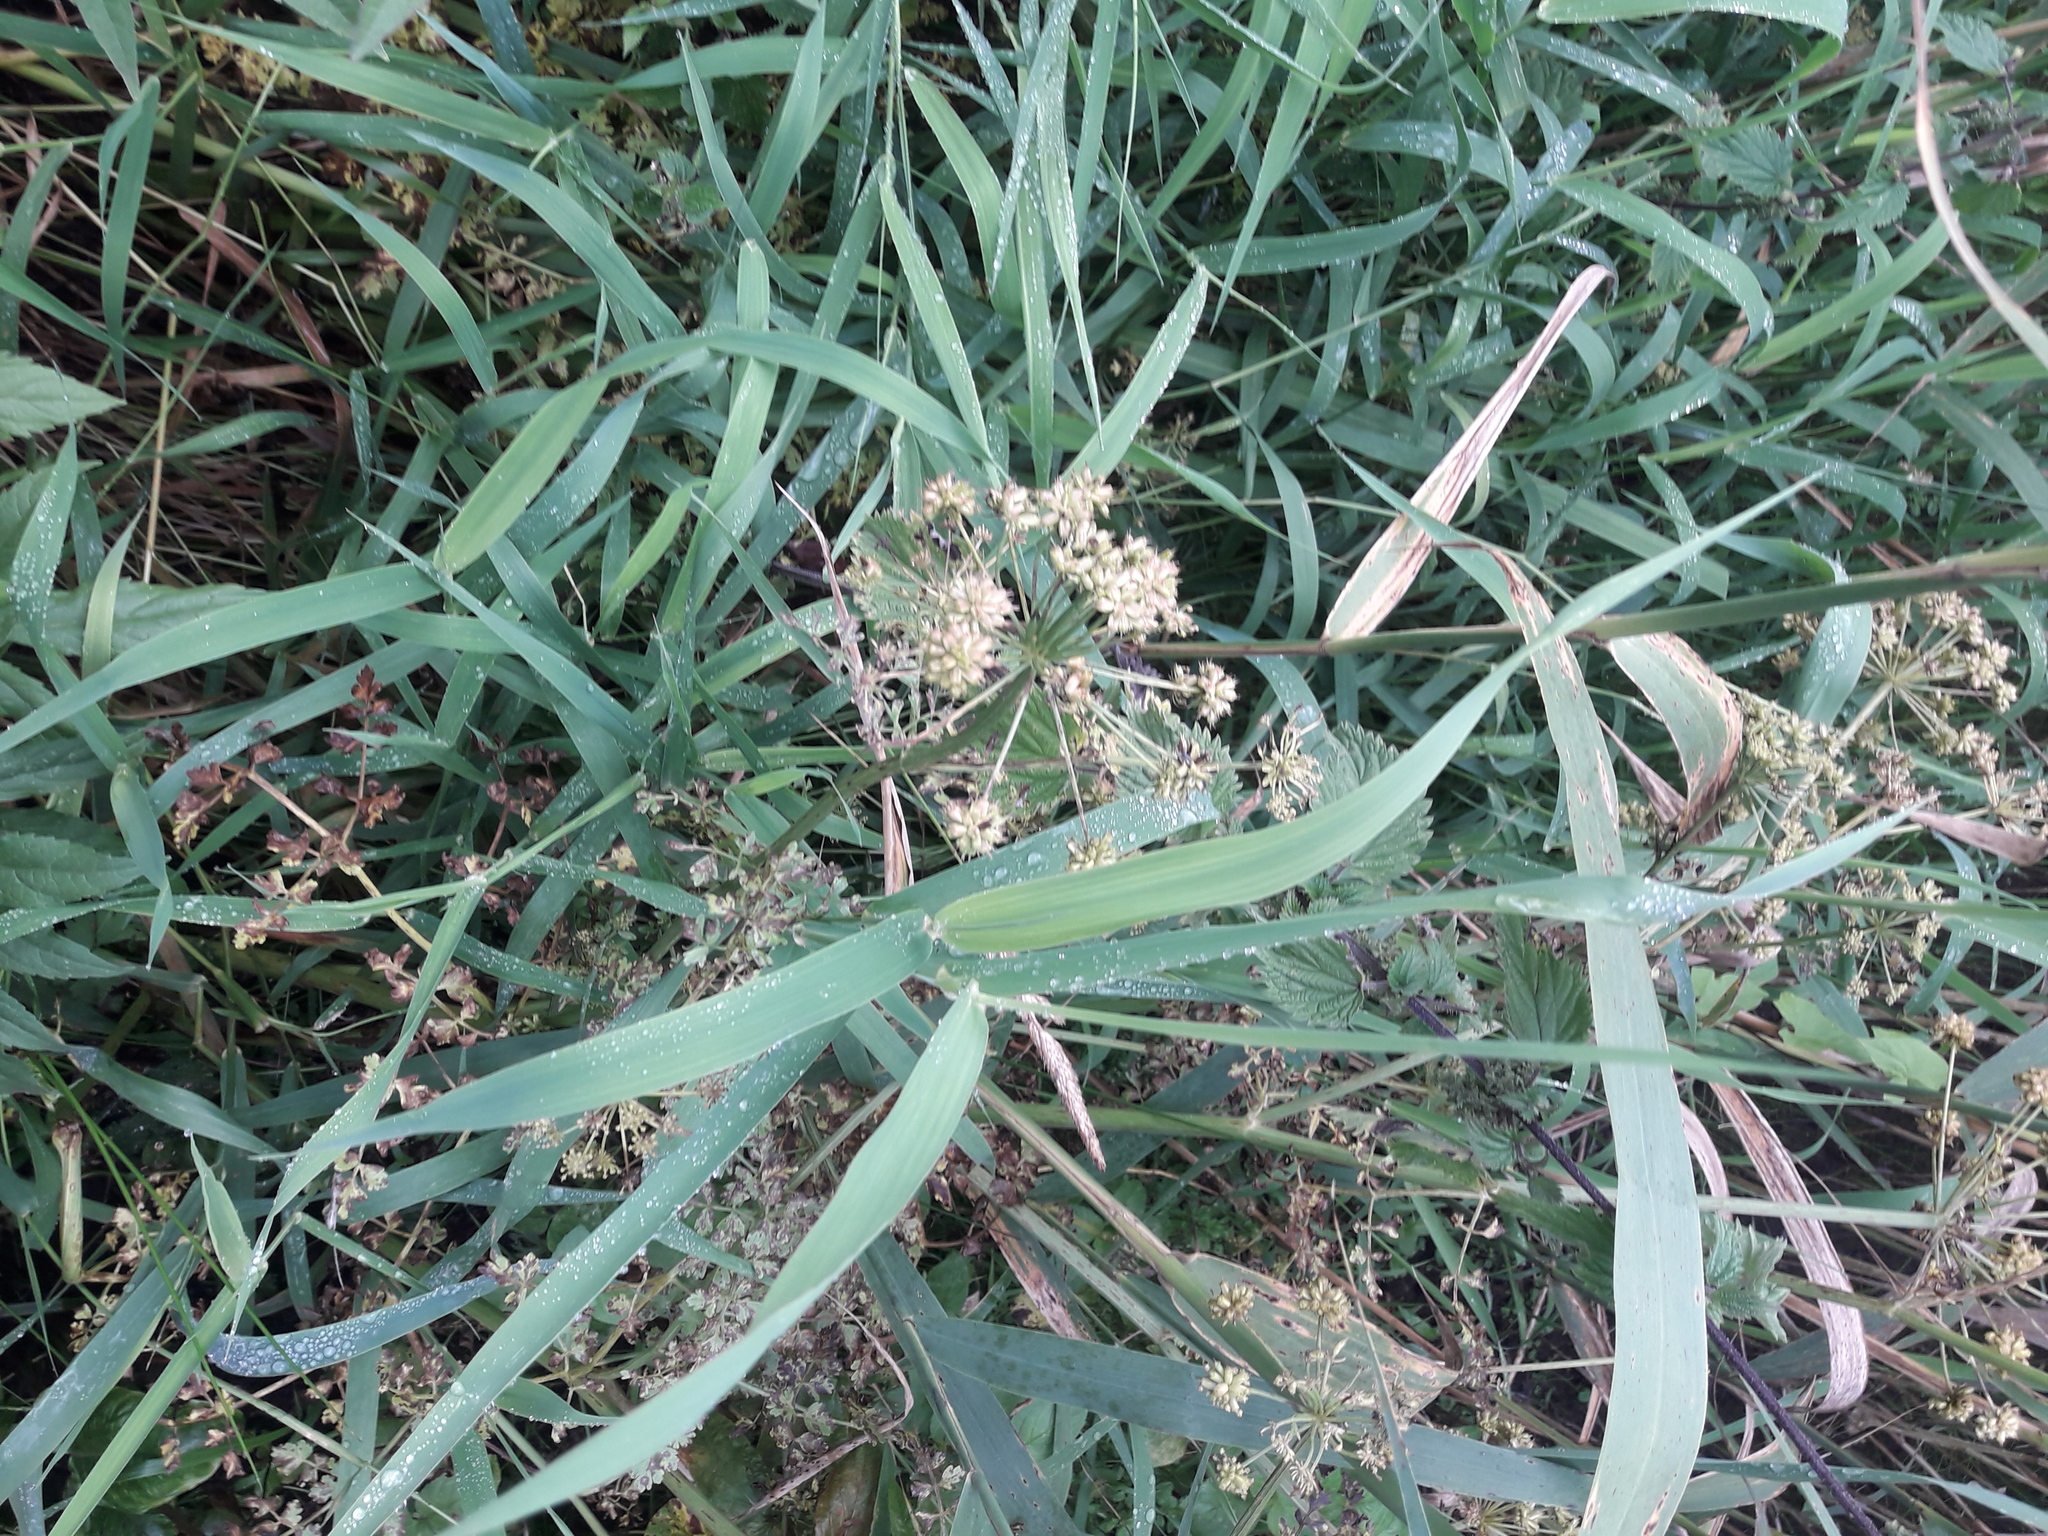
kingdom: Plantae
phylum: Tracheophyta
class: Liliopsida
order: Poales
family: Poaceae
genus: Phalaris
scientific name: Phalaris arundinacea
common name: Reed canary-grass
